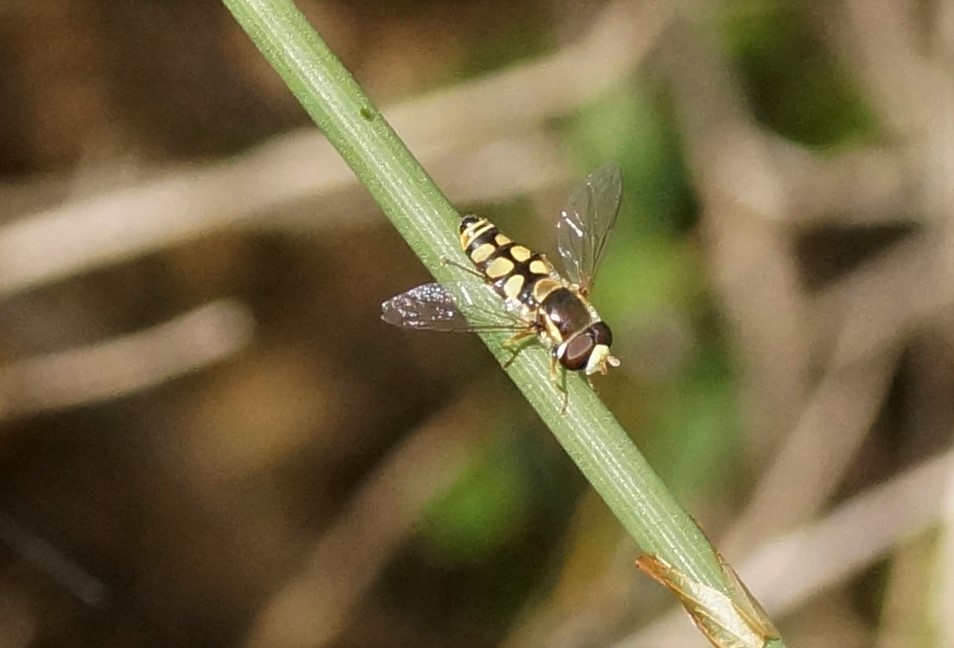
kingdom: Animalia
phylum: Arthropoda
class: Insecta
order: Diptera
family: Syrphidae
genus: Simosyrphus
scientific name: Simosyrphus grandicornis
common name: Hoverfly
